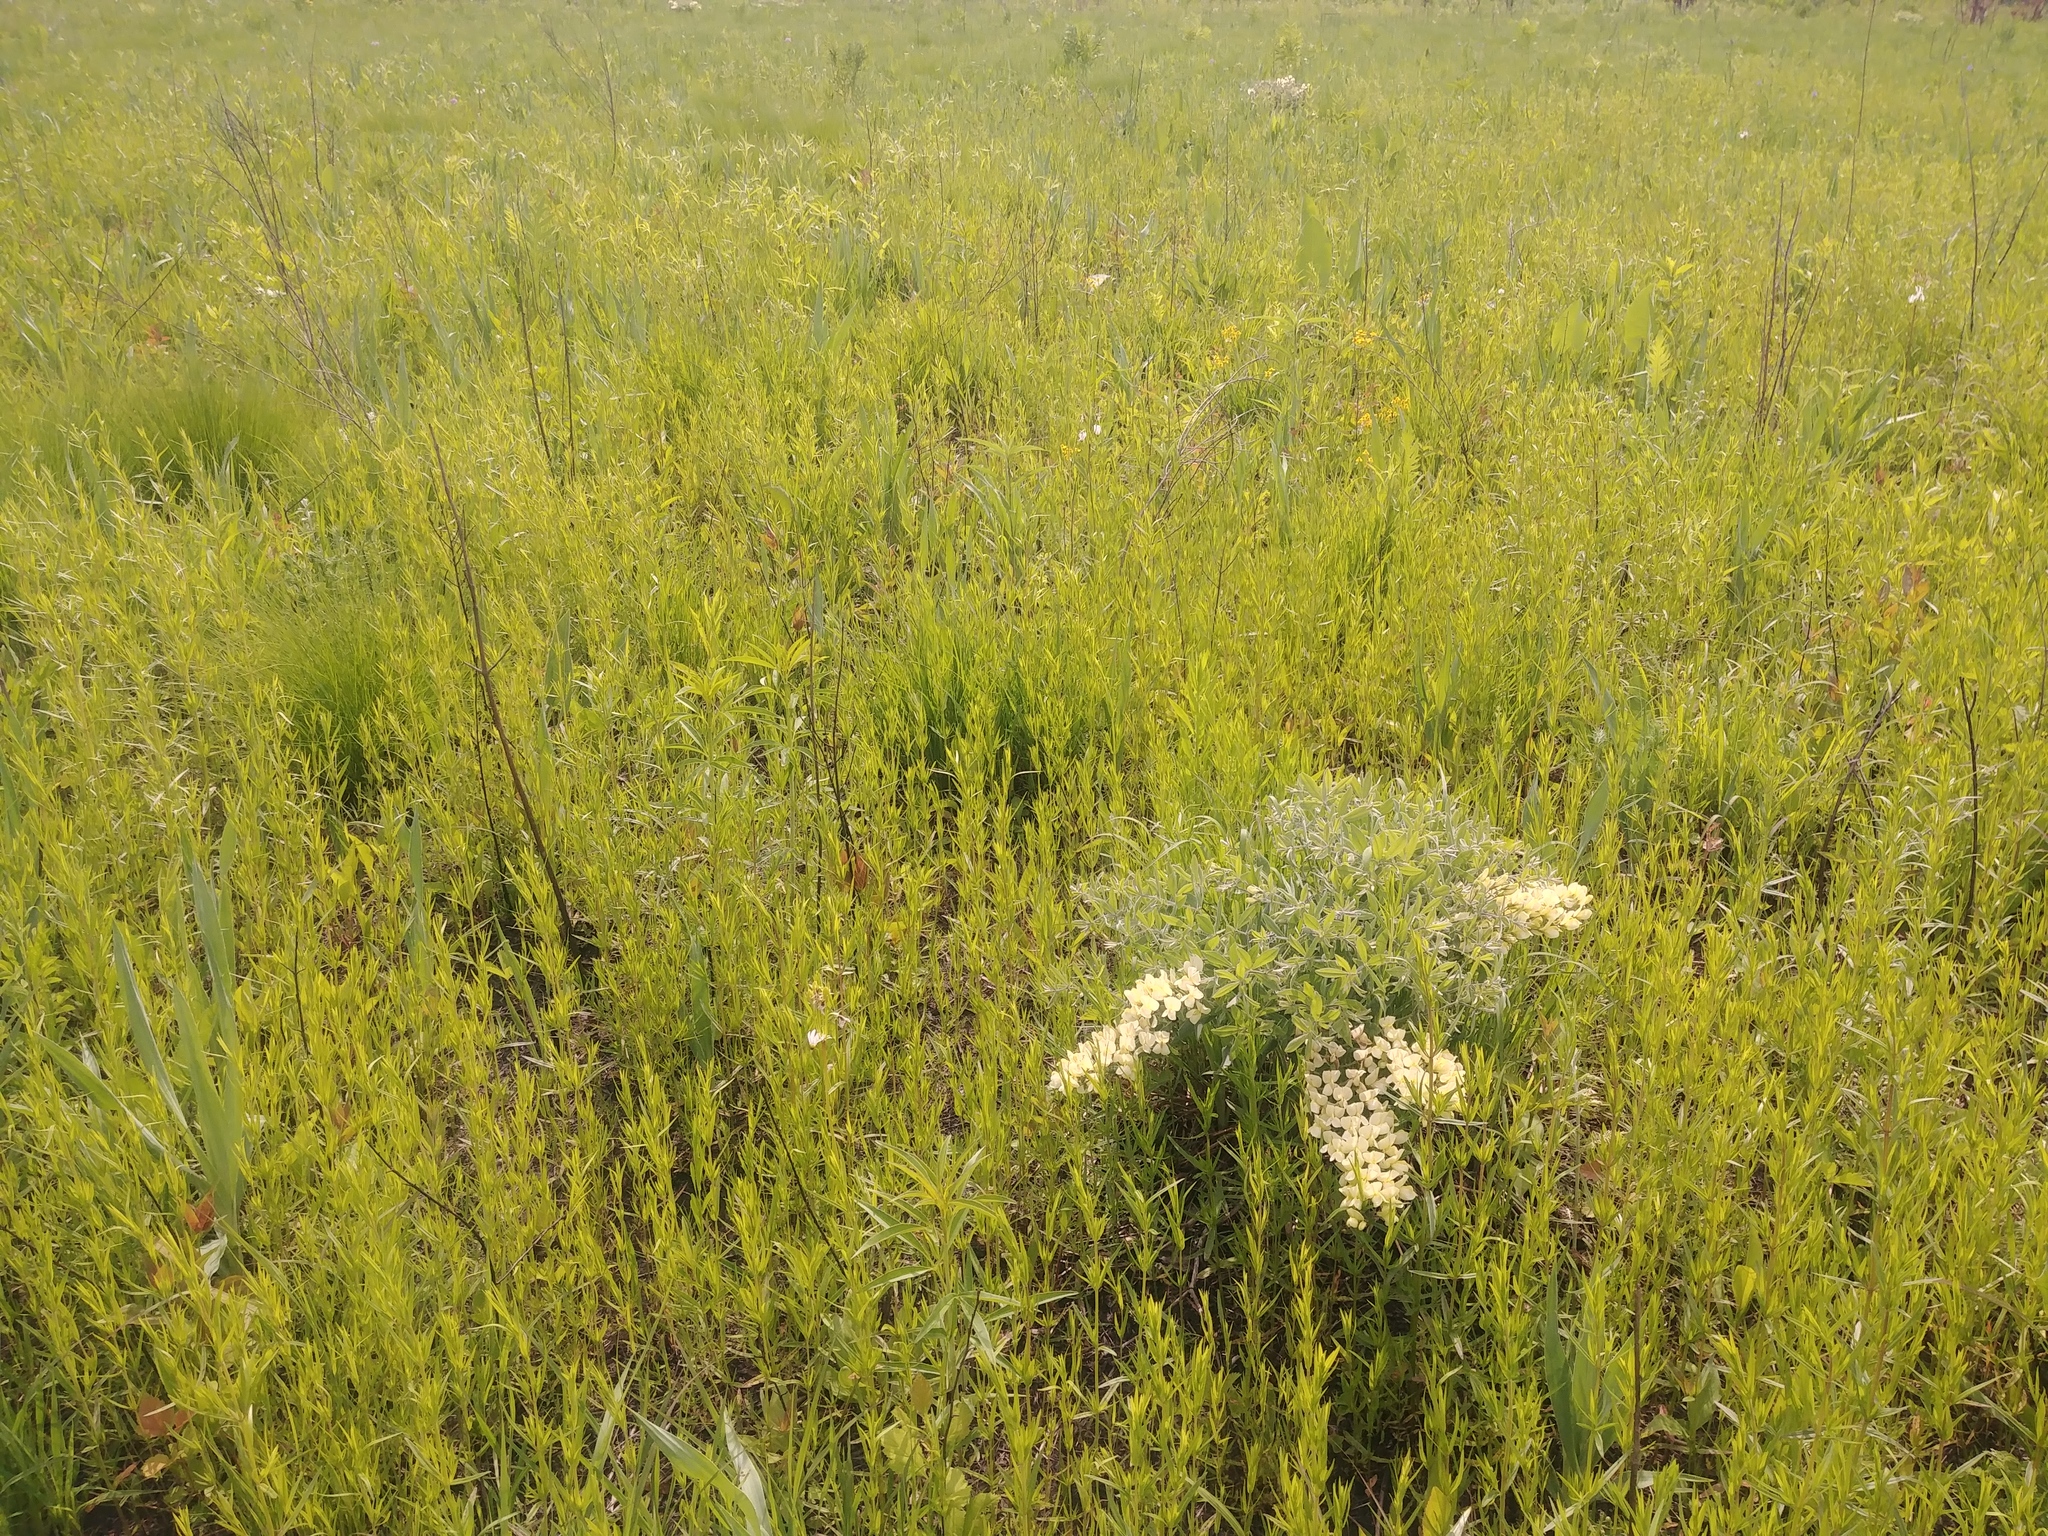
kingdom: Plantae
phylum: Tracheophyta
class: Magnoliopsida
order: Fabales
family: Fabaceae
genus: Baptisia
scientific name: Baptisia bracteata
